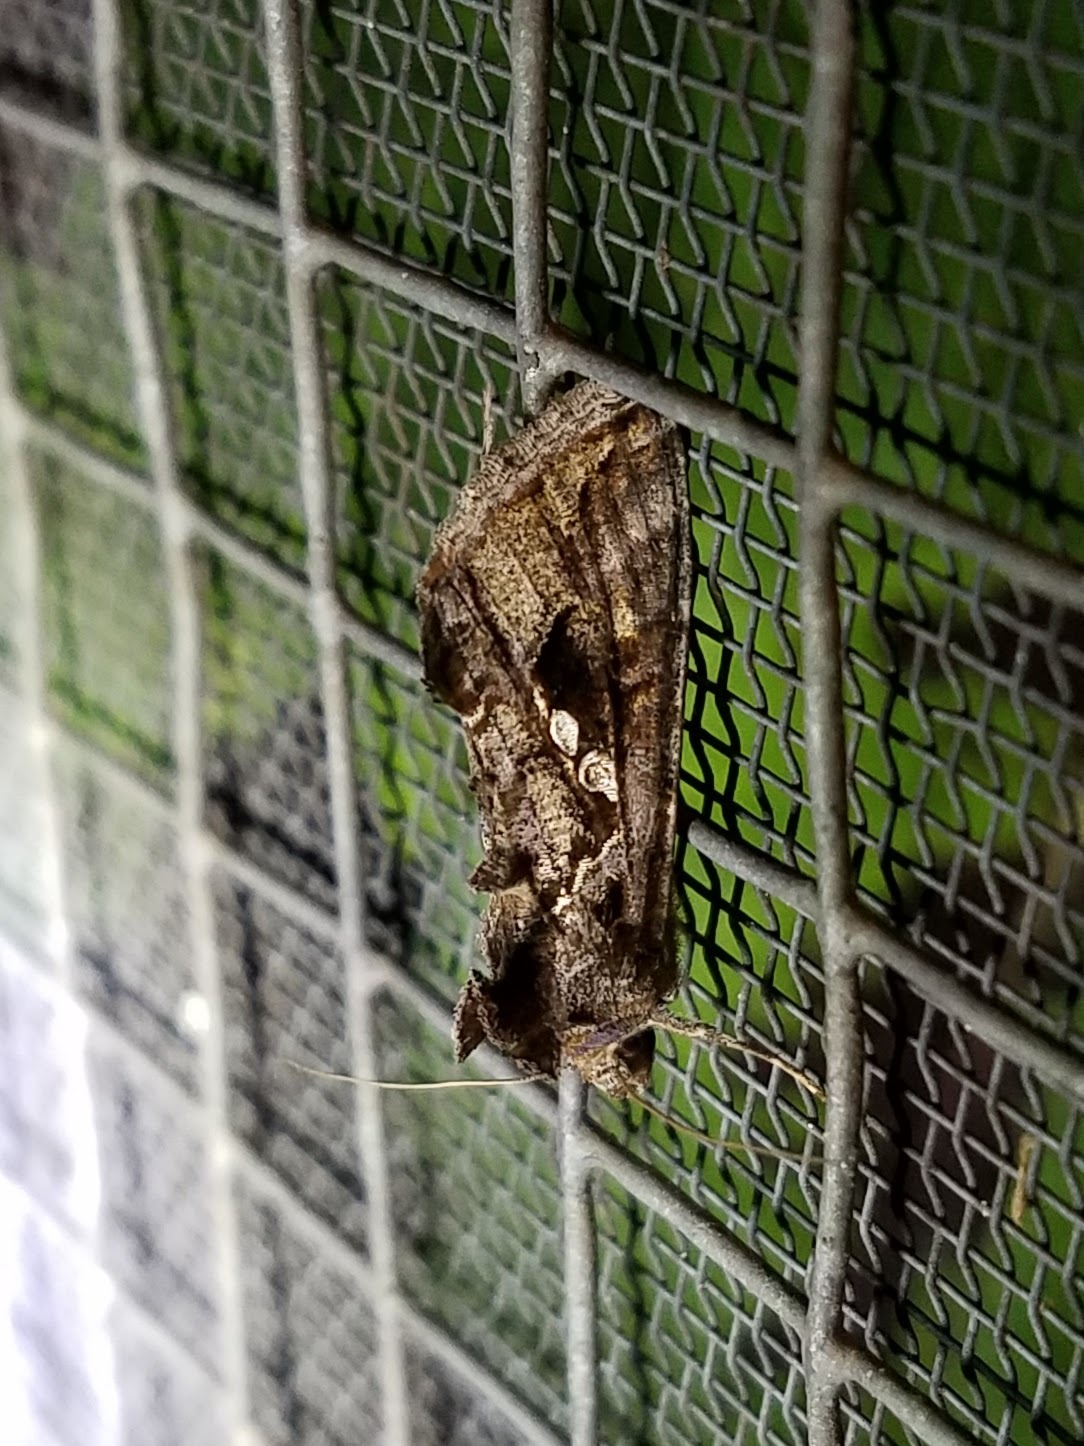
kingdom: Animalia
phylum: Arthropoda
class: Insecta
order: Lepidoptera
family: Noctuidae
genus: Chrysodeixis
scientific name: Chrysodeixis includens
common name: Cutworm moth
